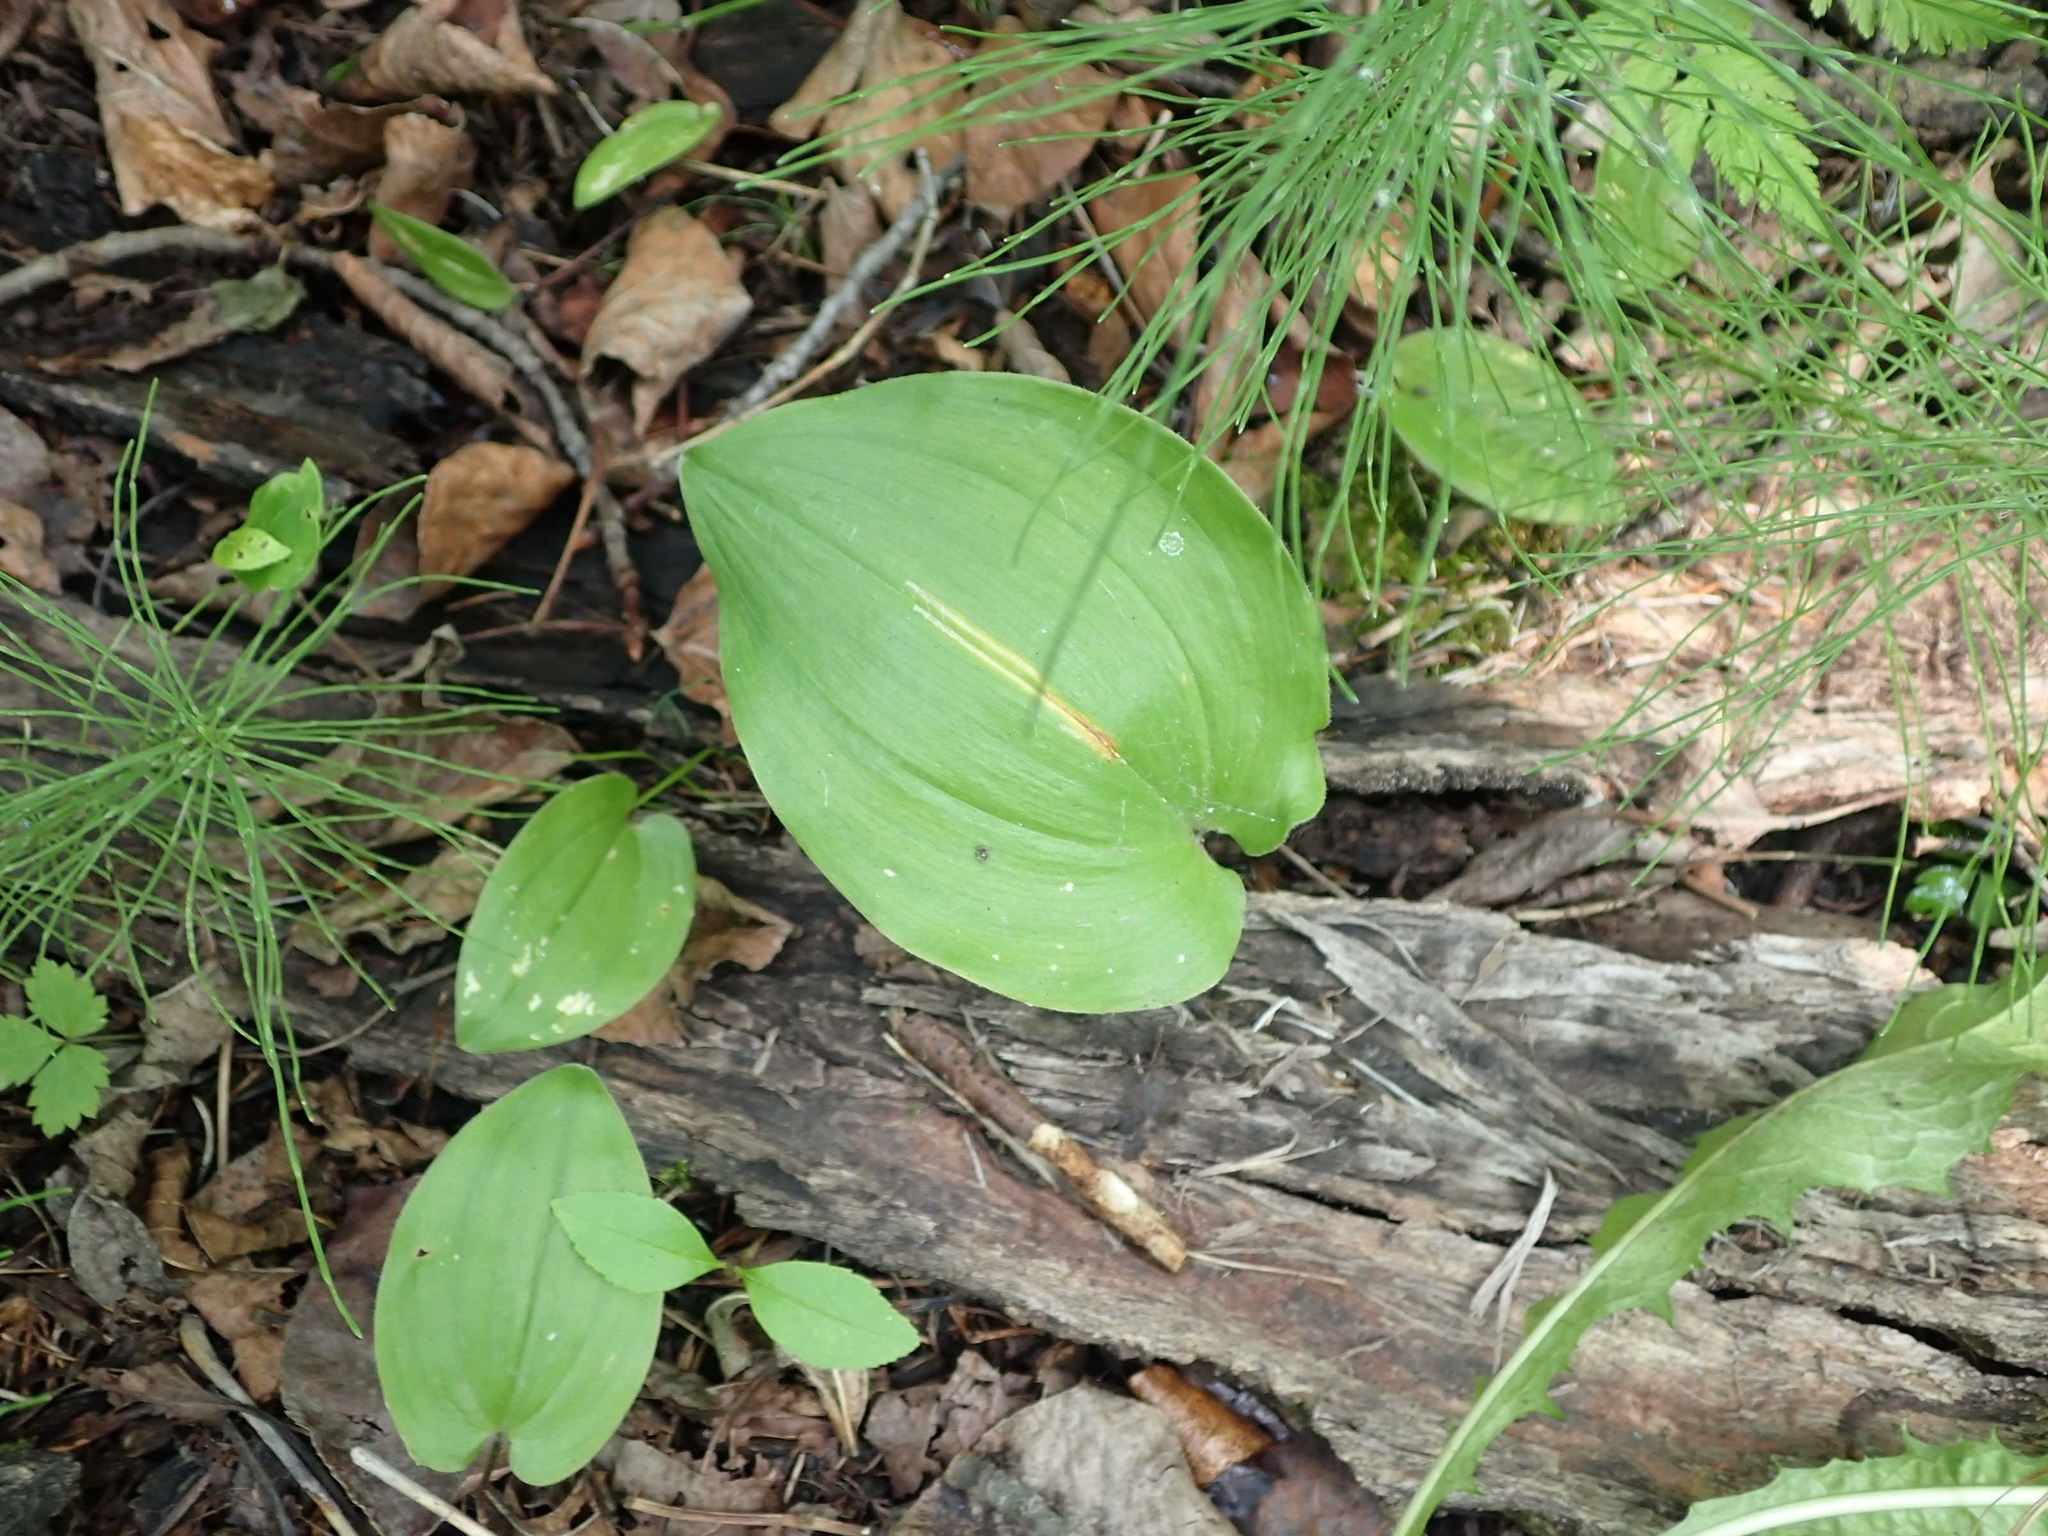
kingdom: Plantae
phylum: Tracheophyta
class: Liliopsida
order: Asparagales
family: Asparagaceae
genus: Maianthemum
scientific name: Maianthemum canadense
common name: False lily-of-the-valley
